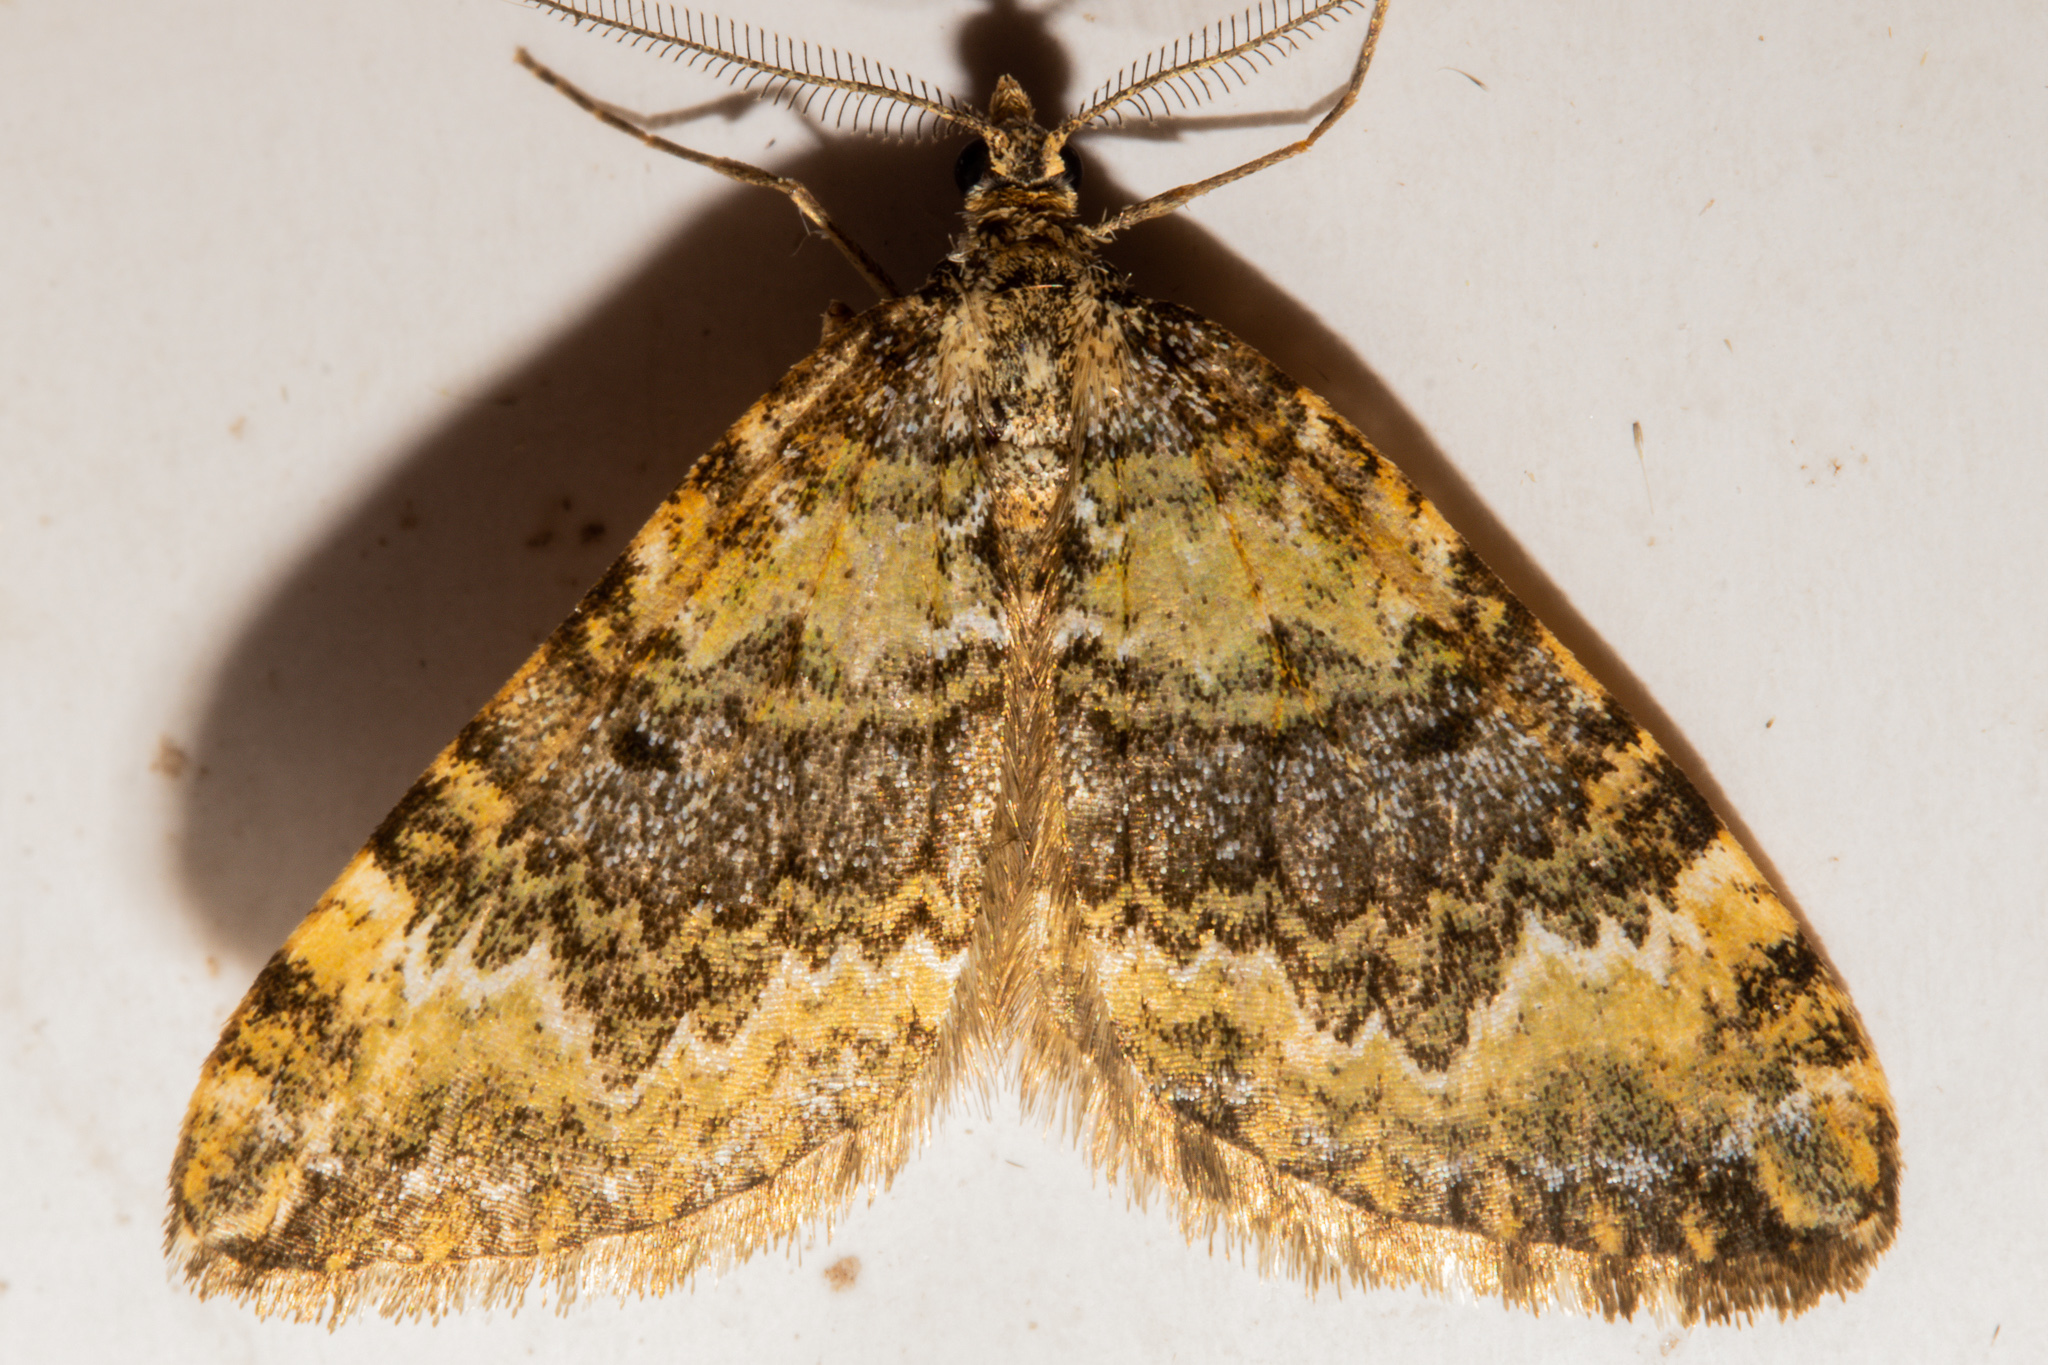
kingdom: Animalia
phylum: Arthropoda
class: Insecta
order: Lepidoptera
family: Geometridae
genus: Asaphodes
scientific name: Asaphodes prasinias
